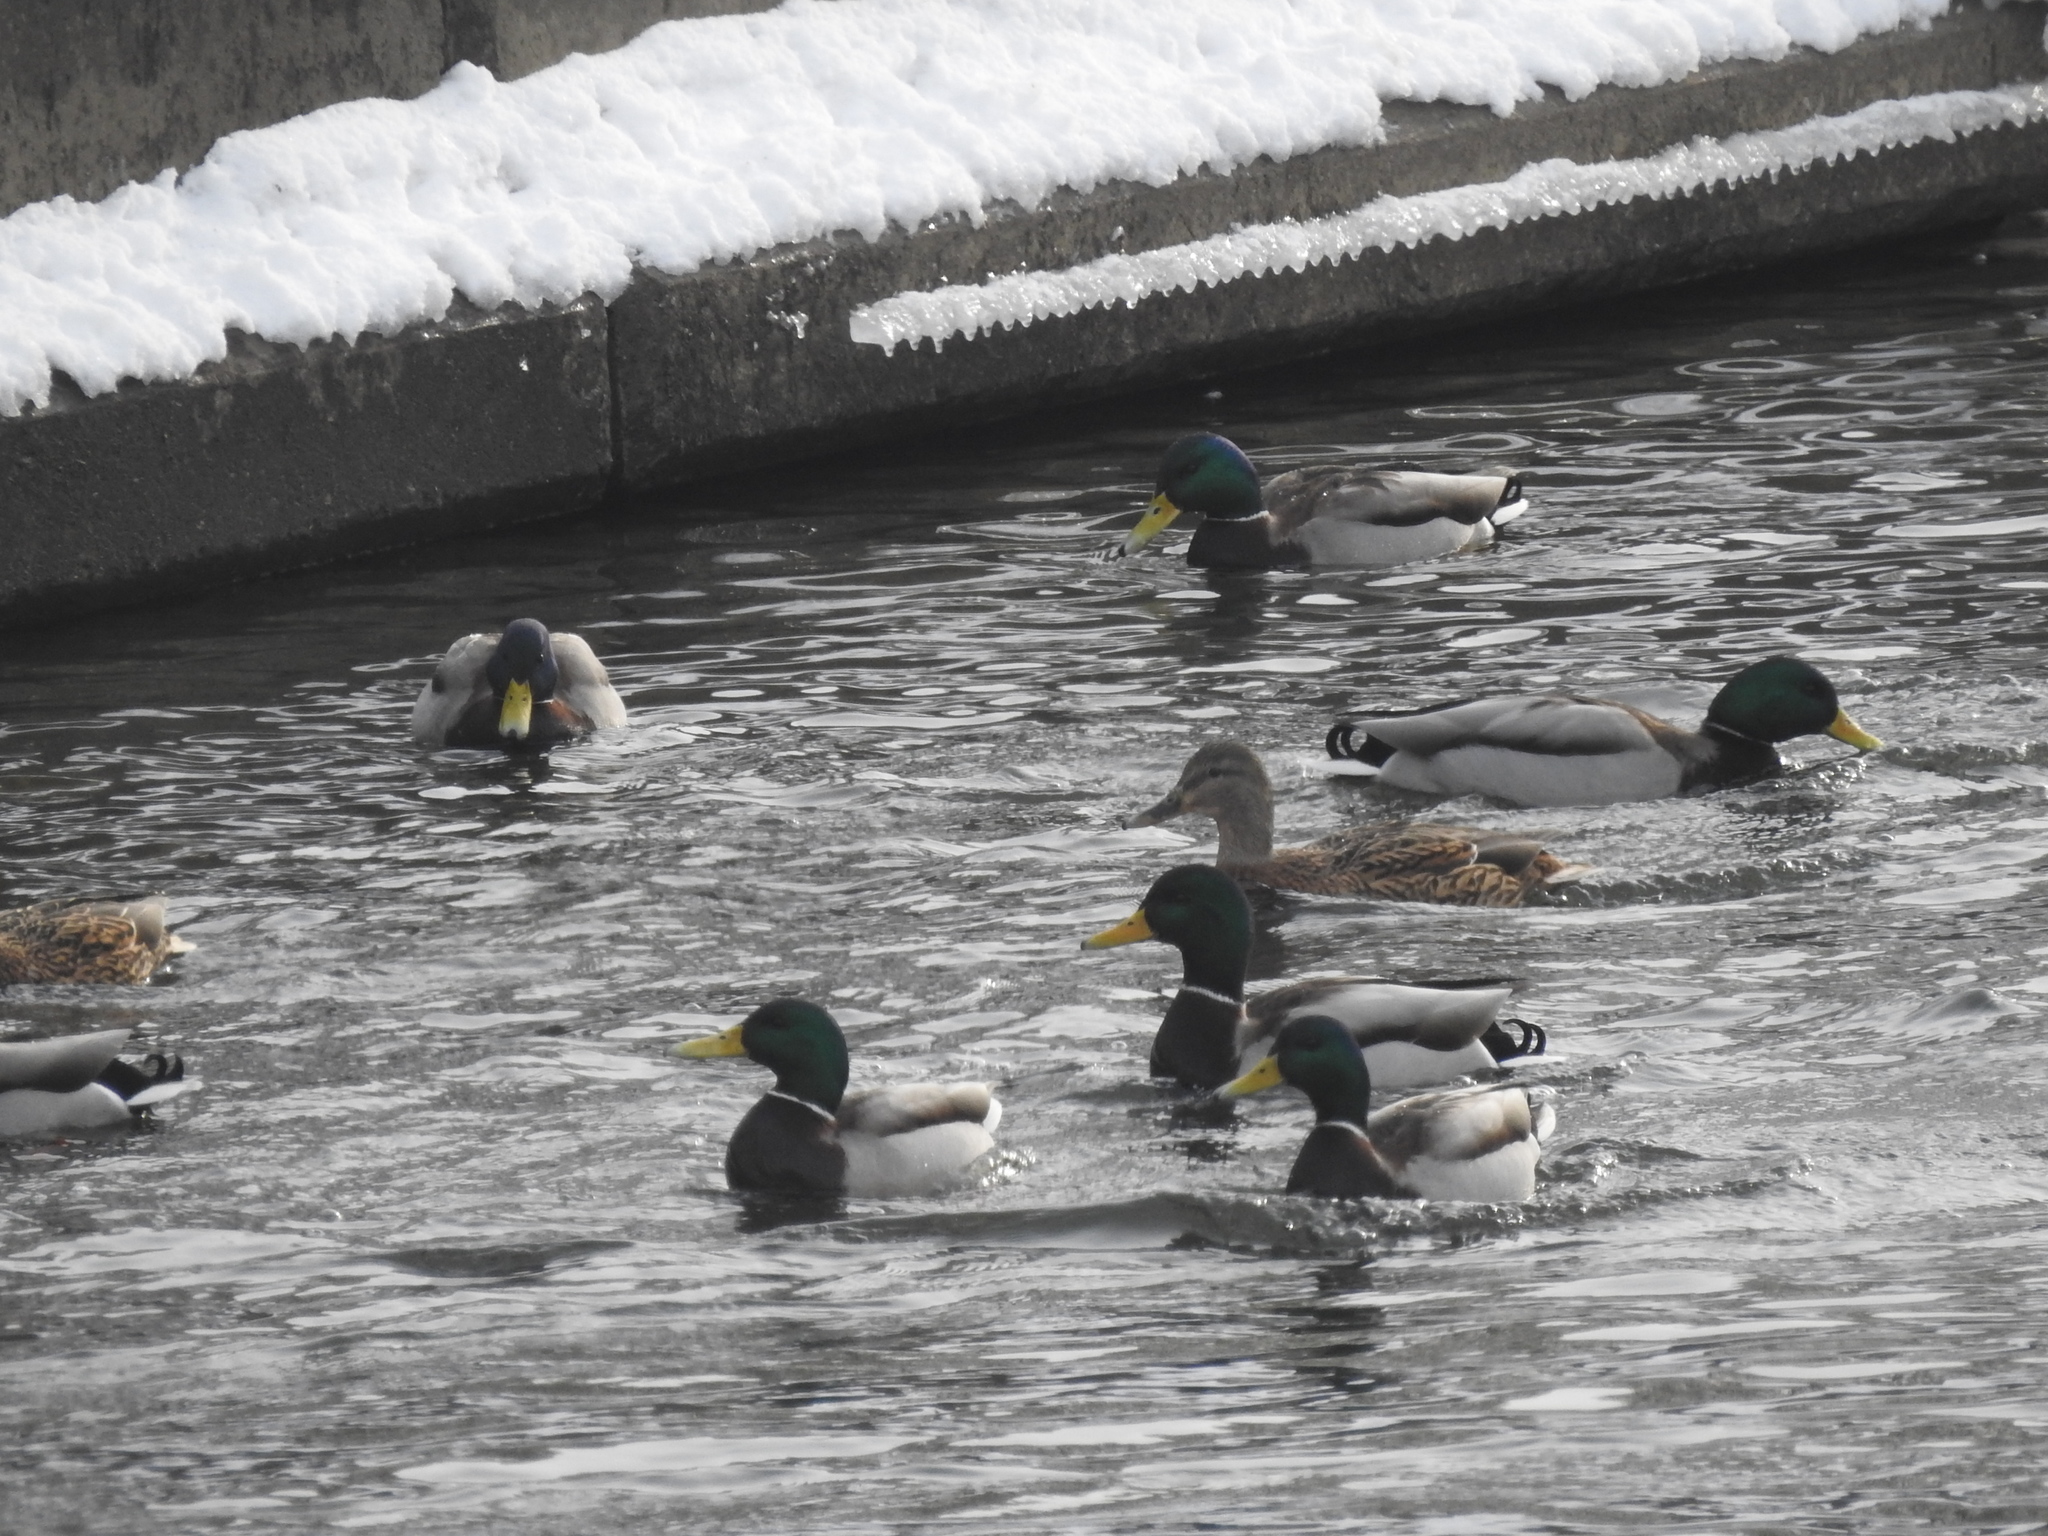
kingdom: Animalia
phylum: Chordata
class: Aves
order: Anseriformes
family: Anatidae
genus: Anas
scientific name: Anas platyrhynchos
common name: Mallard
